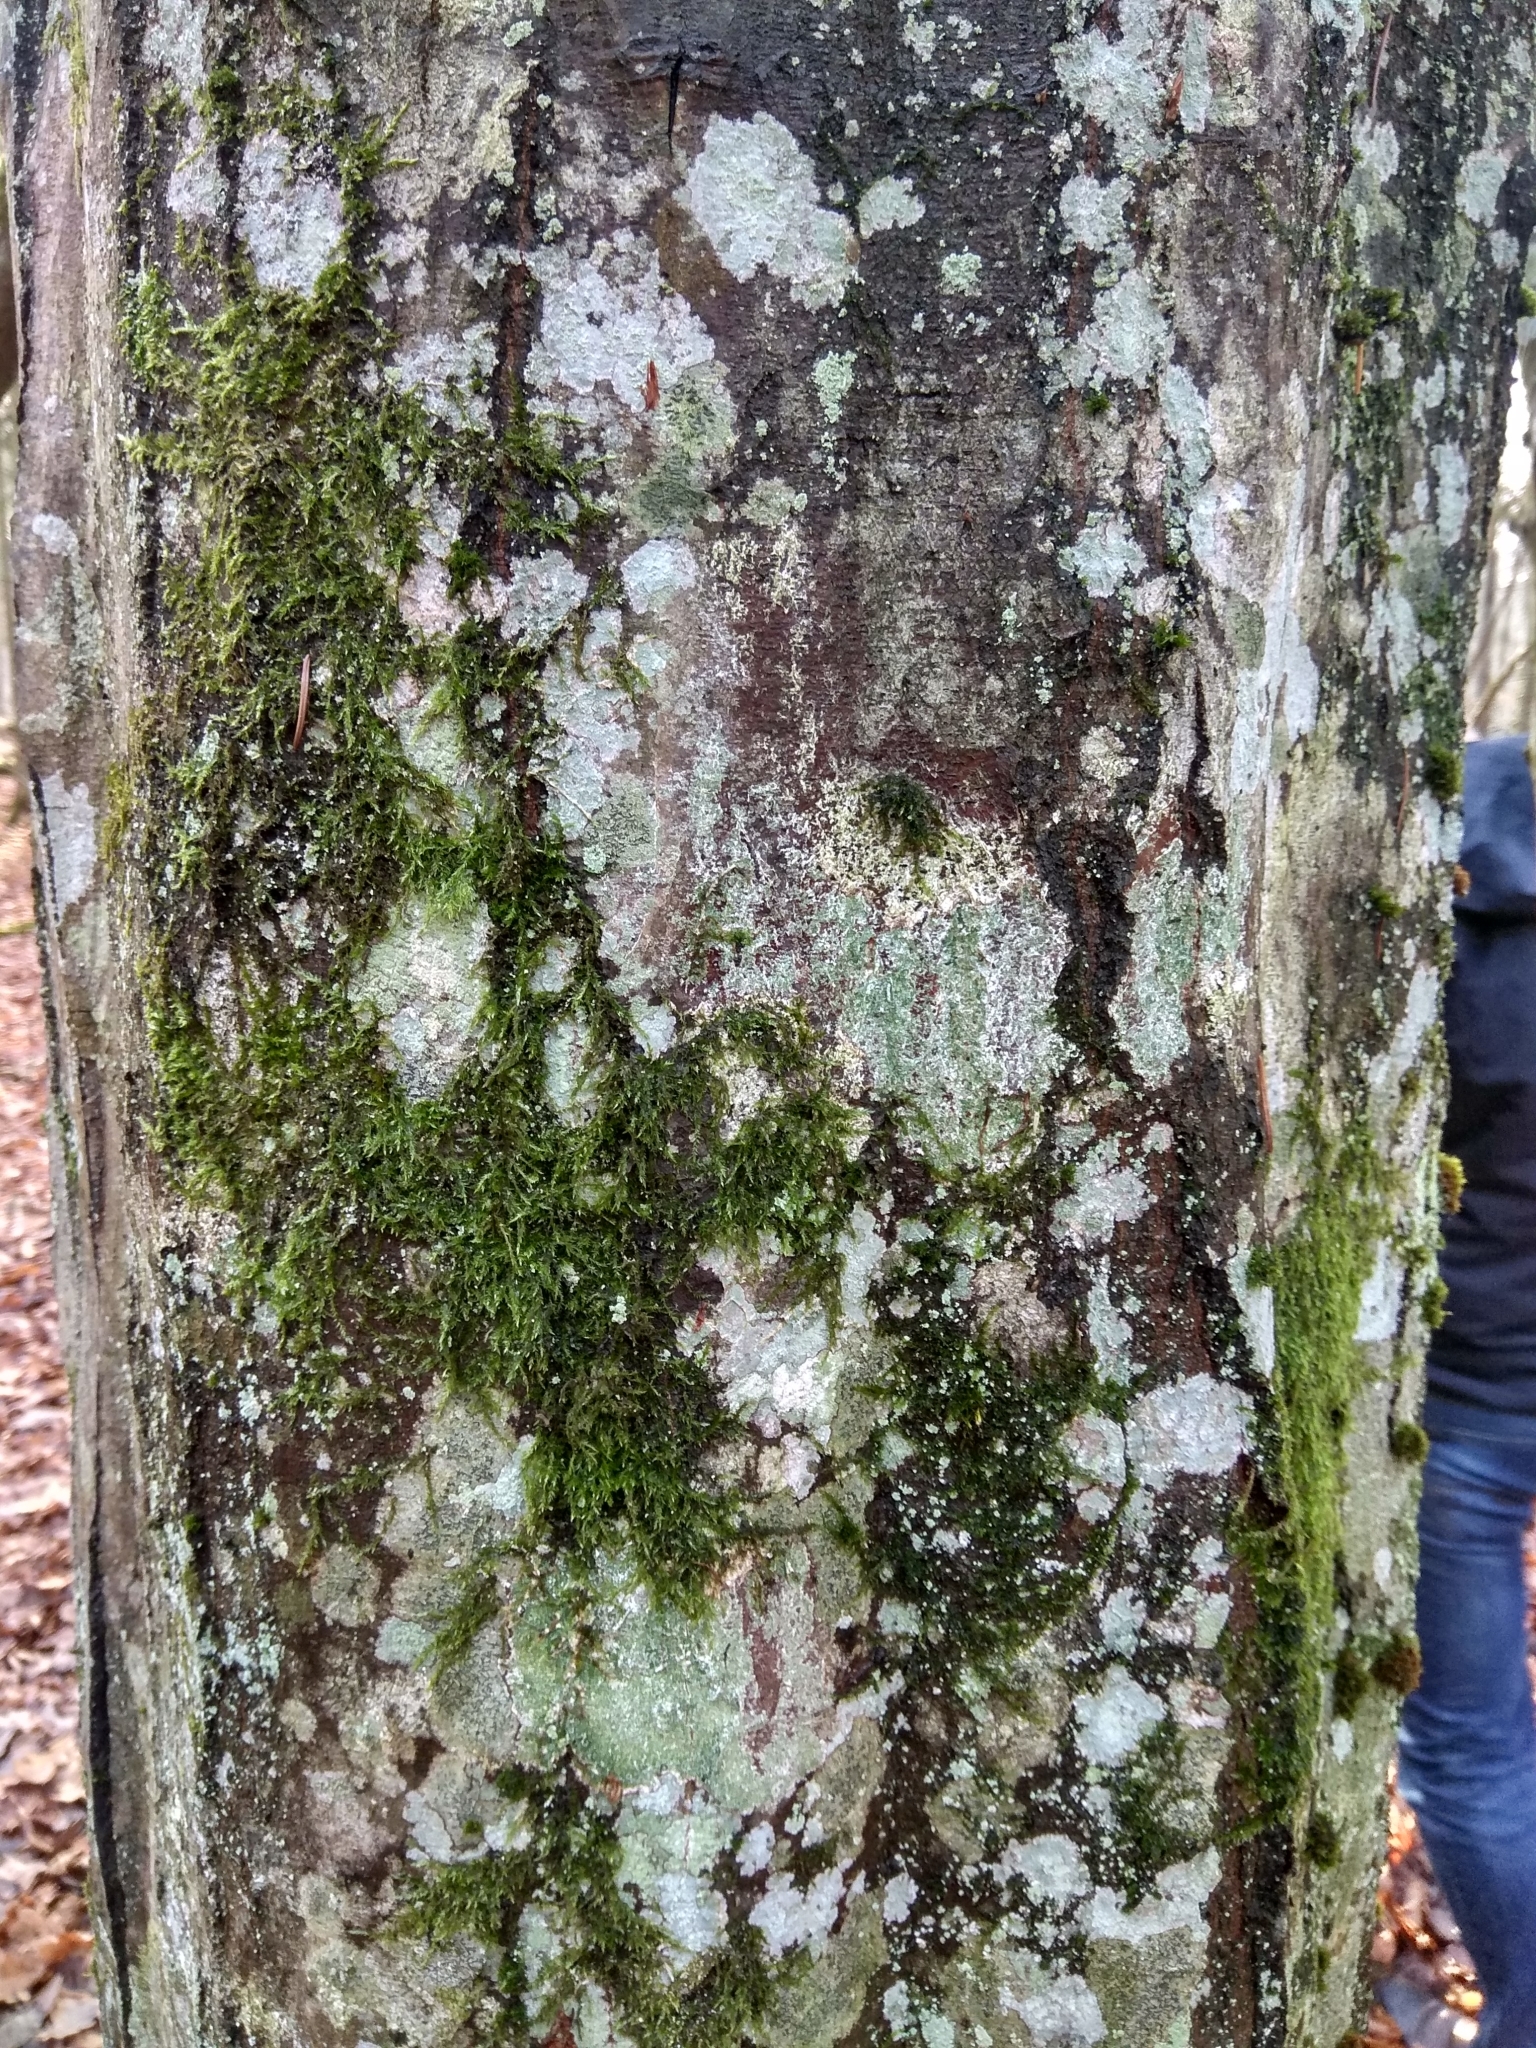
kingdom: Plantae
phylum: Tracheophyta
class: Magnoliopsida
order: Fagales
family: Betulaceae
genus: Carpinus
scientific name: Carpinus betulus
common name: Hornbeam
